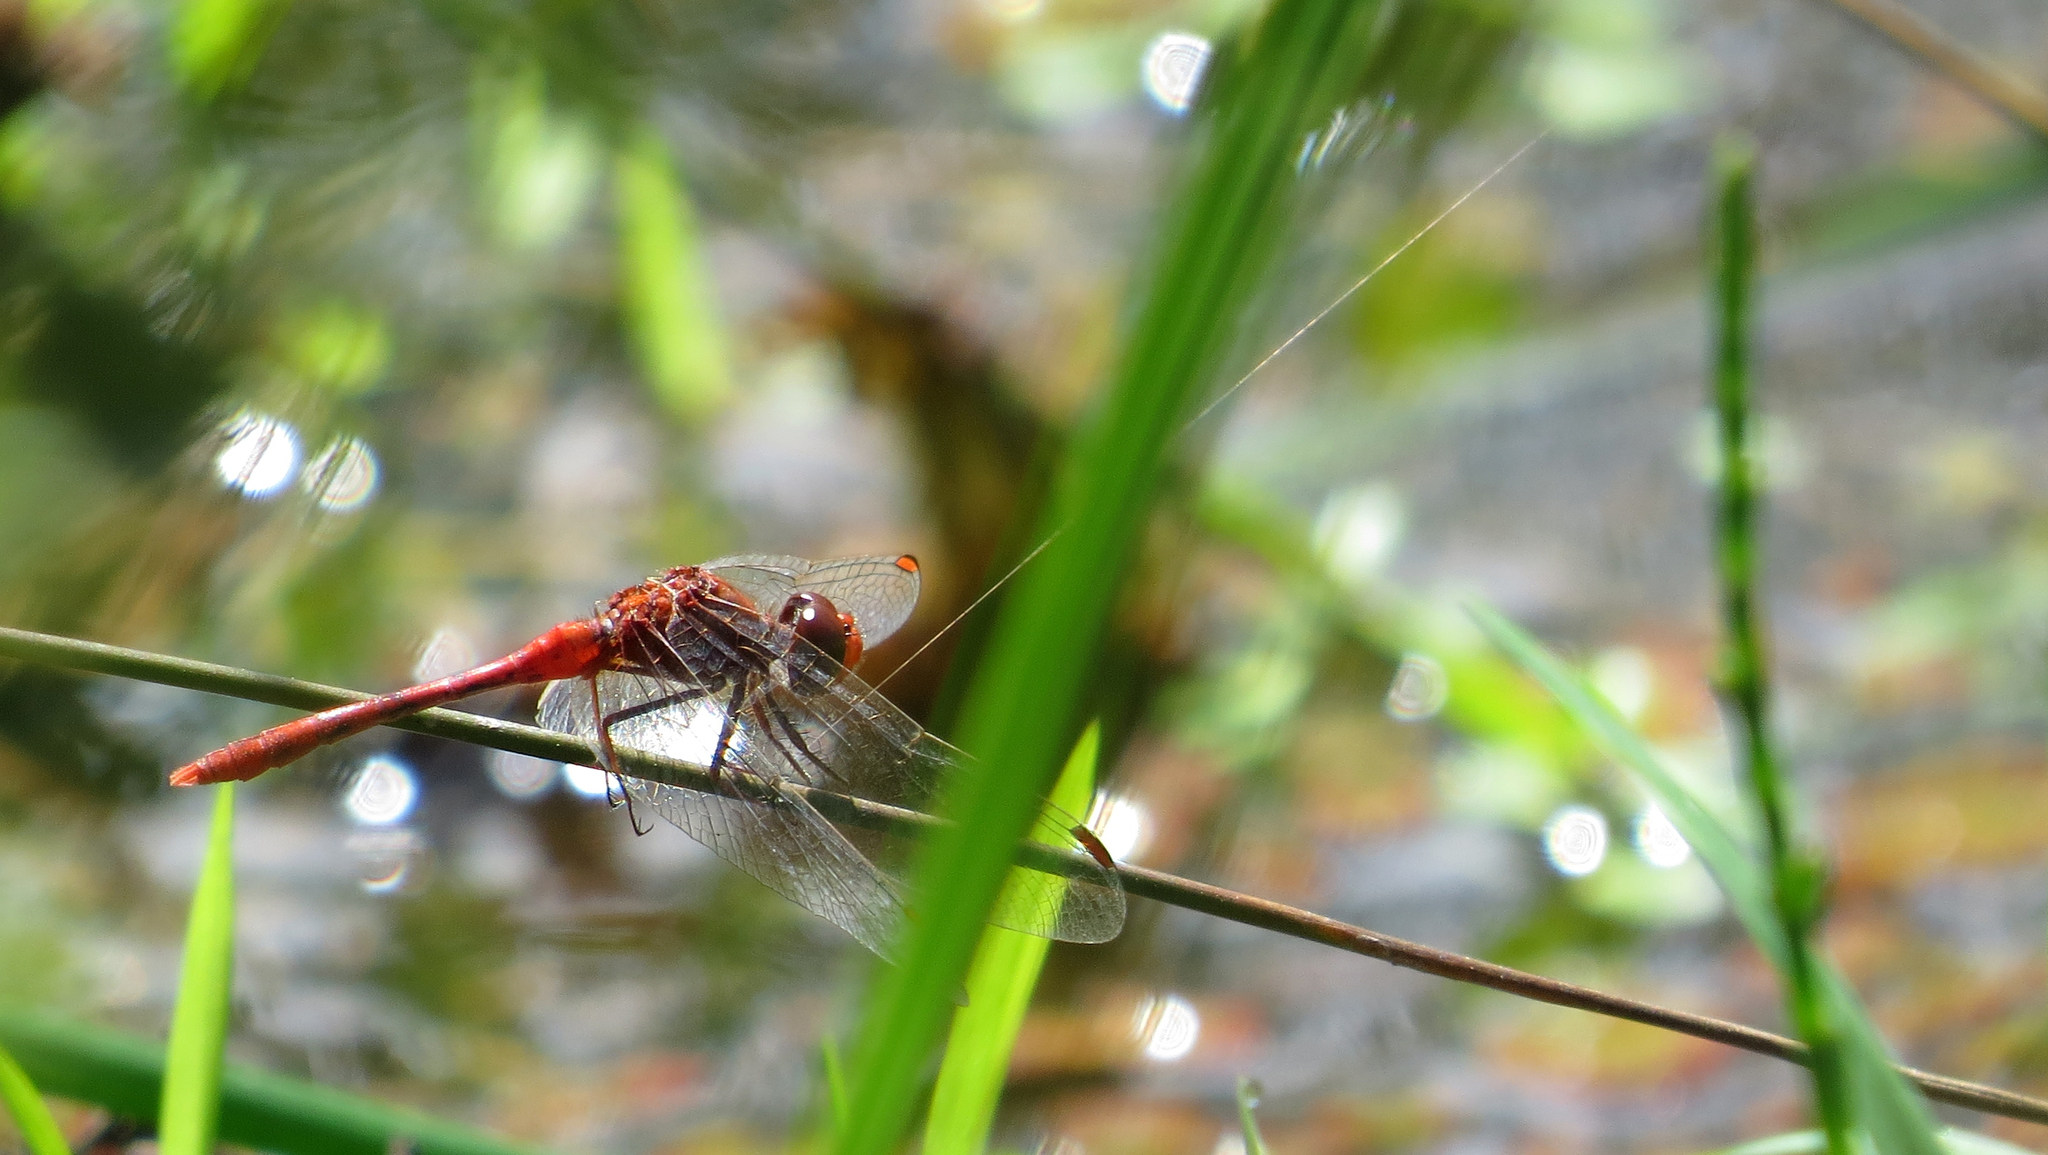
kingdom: Animalia
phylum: Arthropoda
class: Insecta
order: Odonata
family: Libellulidae
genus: Diplacodes
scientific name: Diplacodes bipunctata
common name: Red percher dragonfly
